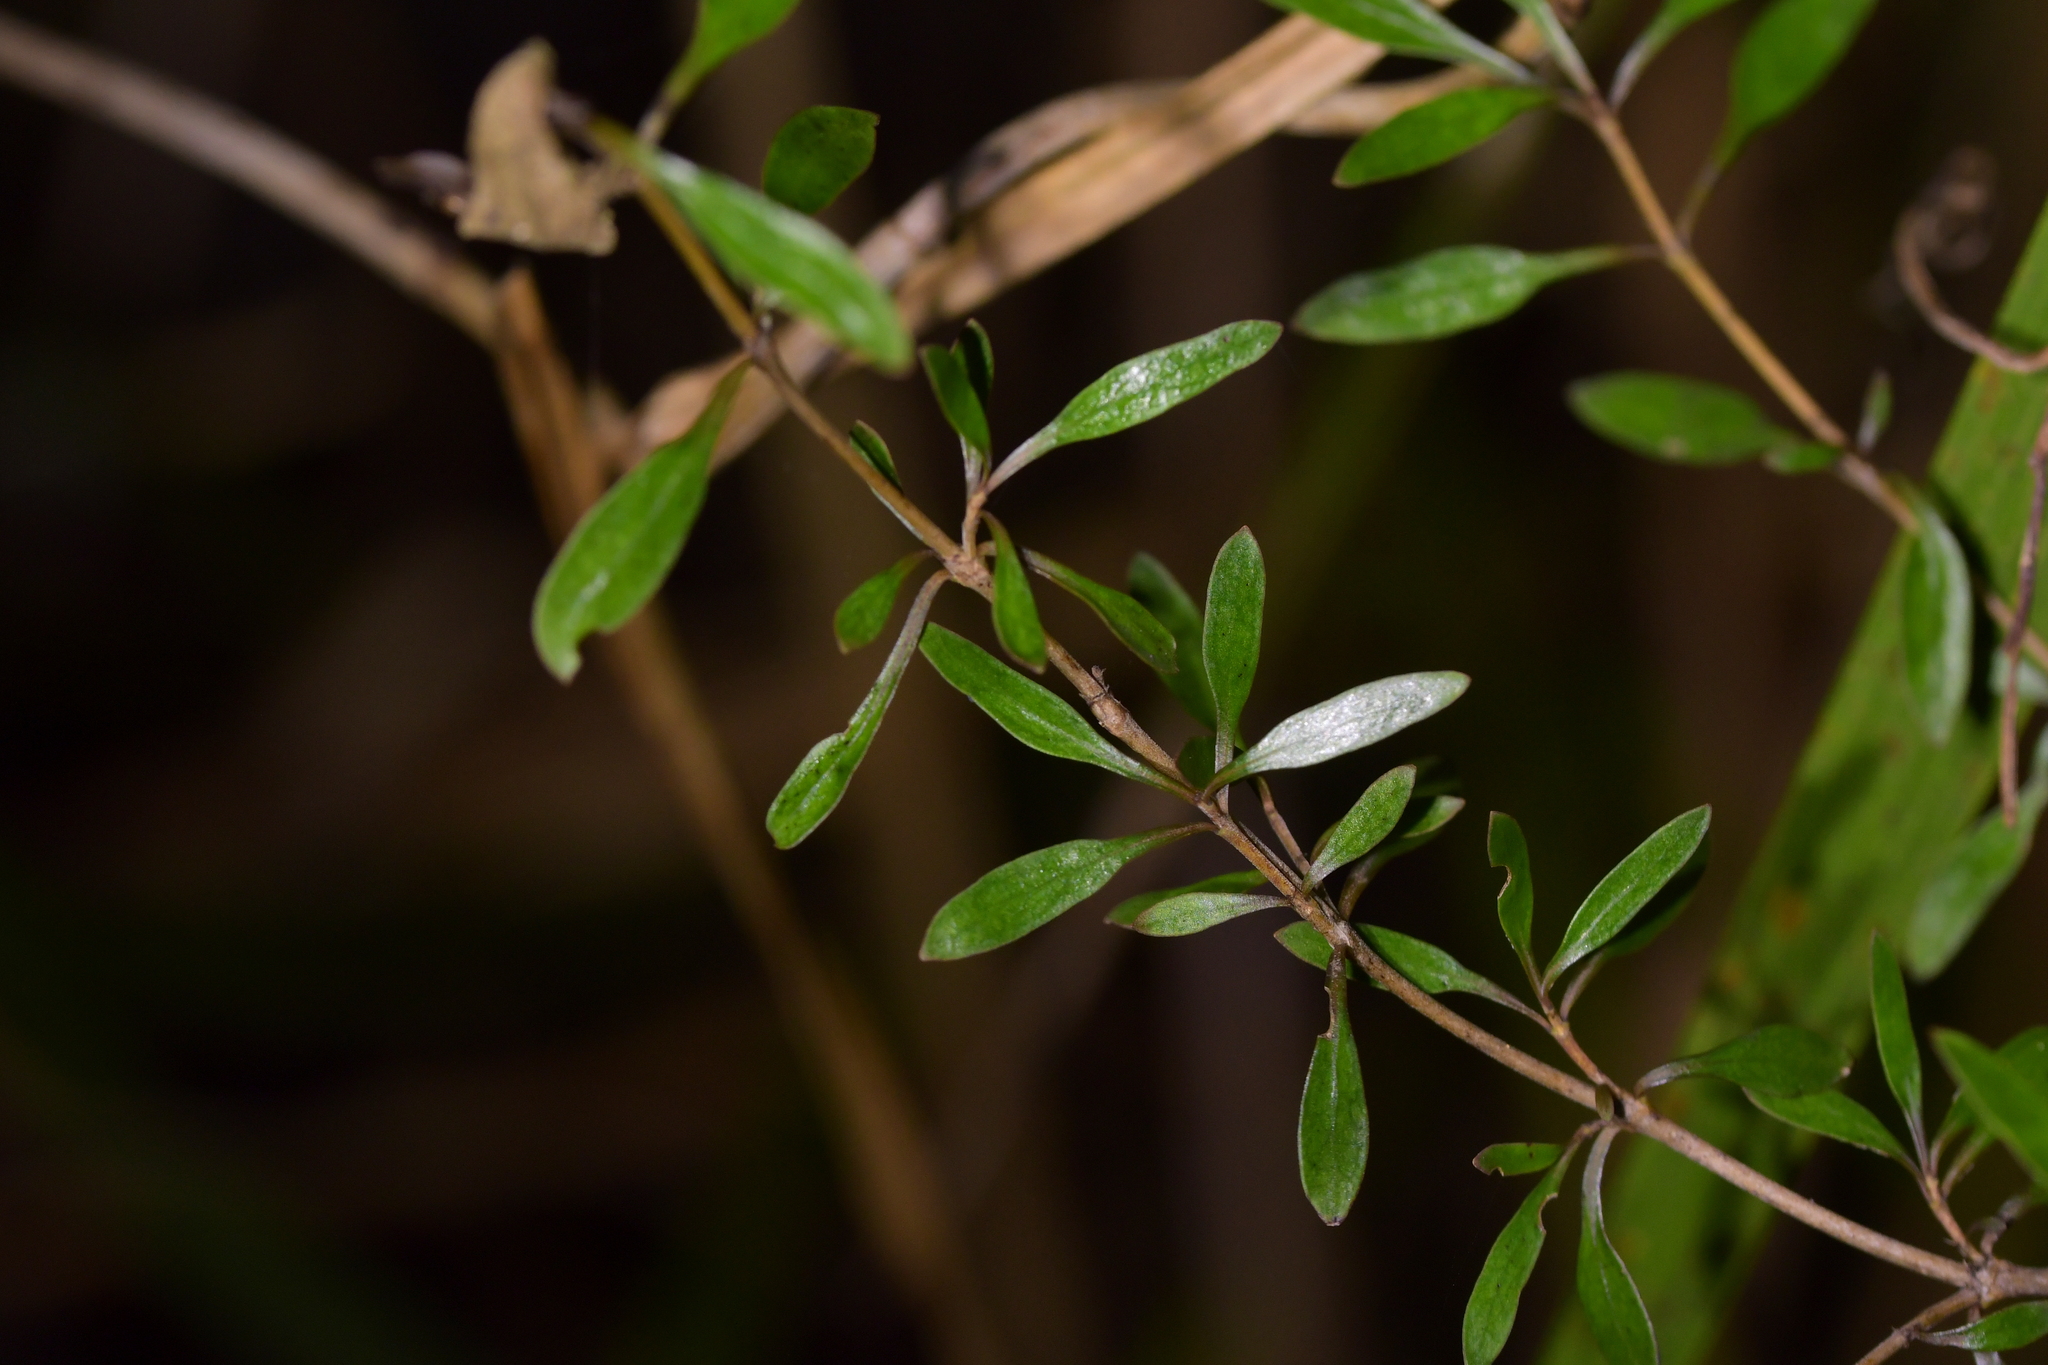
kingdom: Plantae
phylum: Tracheophyta
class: Magnoliopsida
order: Gentianales
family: Rubiaceae
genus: Coprosma
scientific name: Coprosma propinqua
